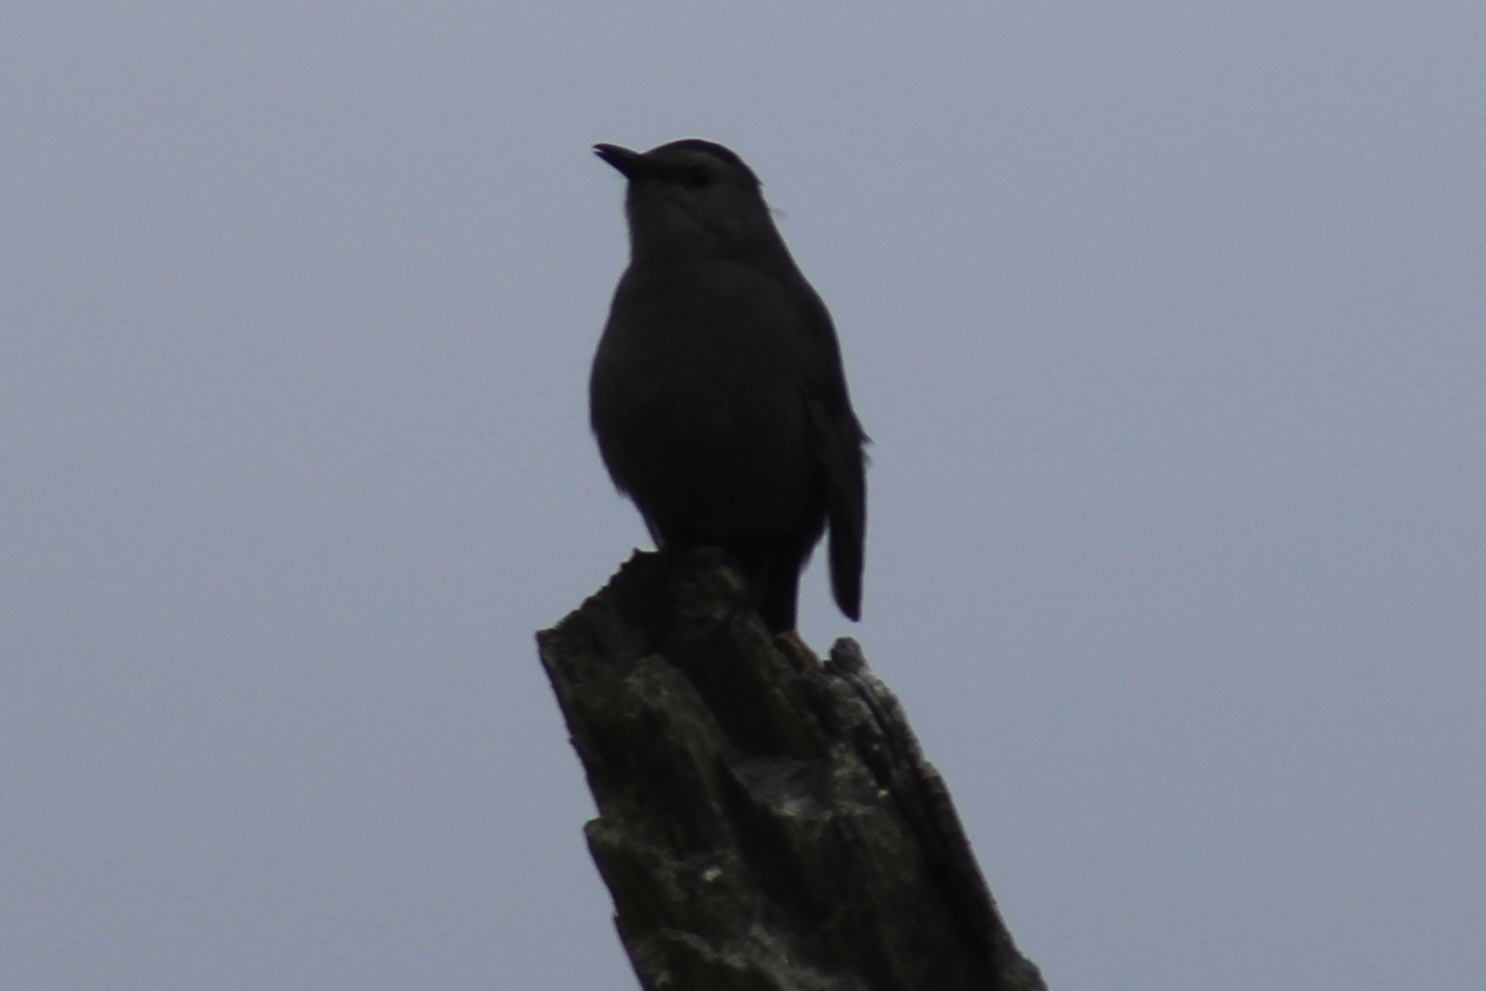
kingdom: Animalia
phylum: Chordata
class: Aves
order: Passeriformes
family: Mimidae
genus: Dumetella
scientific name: Dumetella carolinensis
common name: Gray catbird
